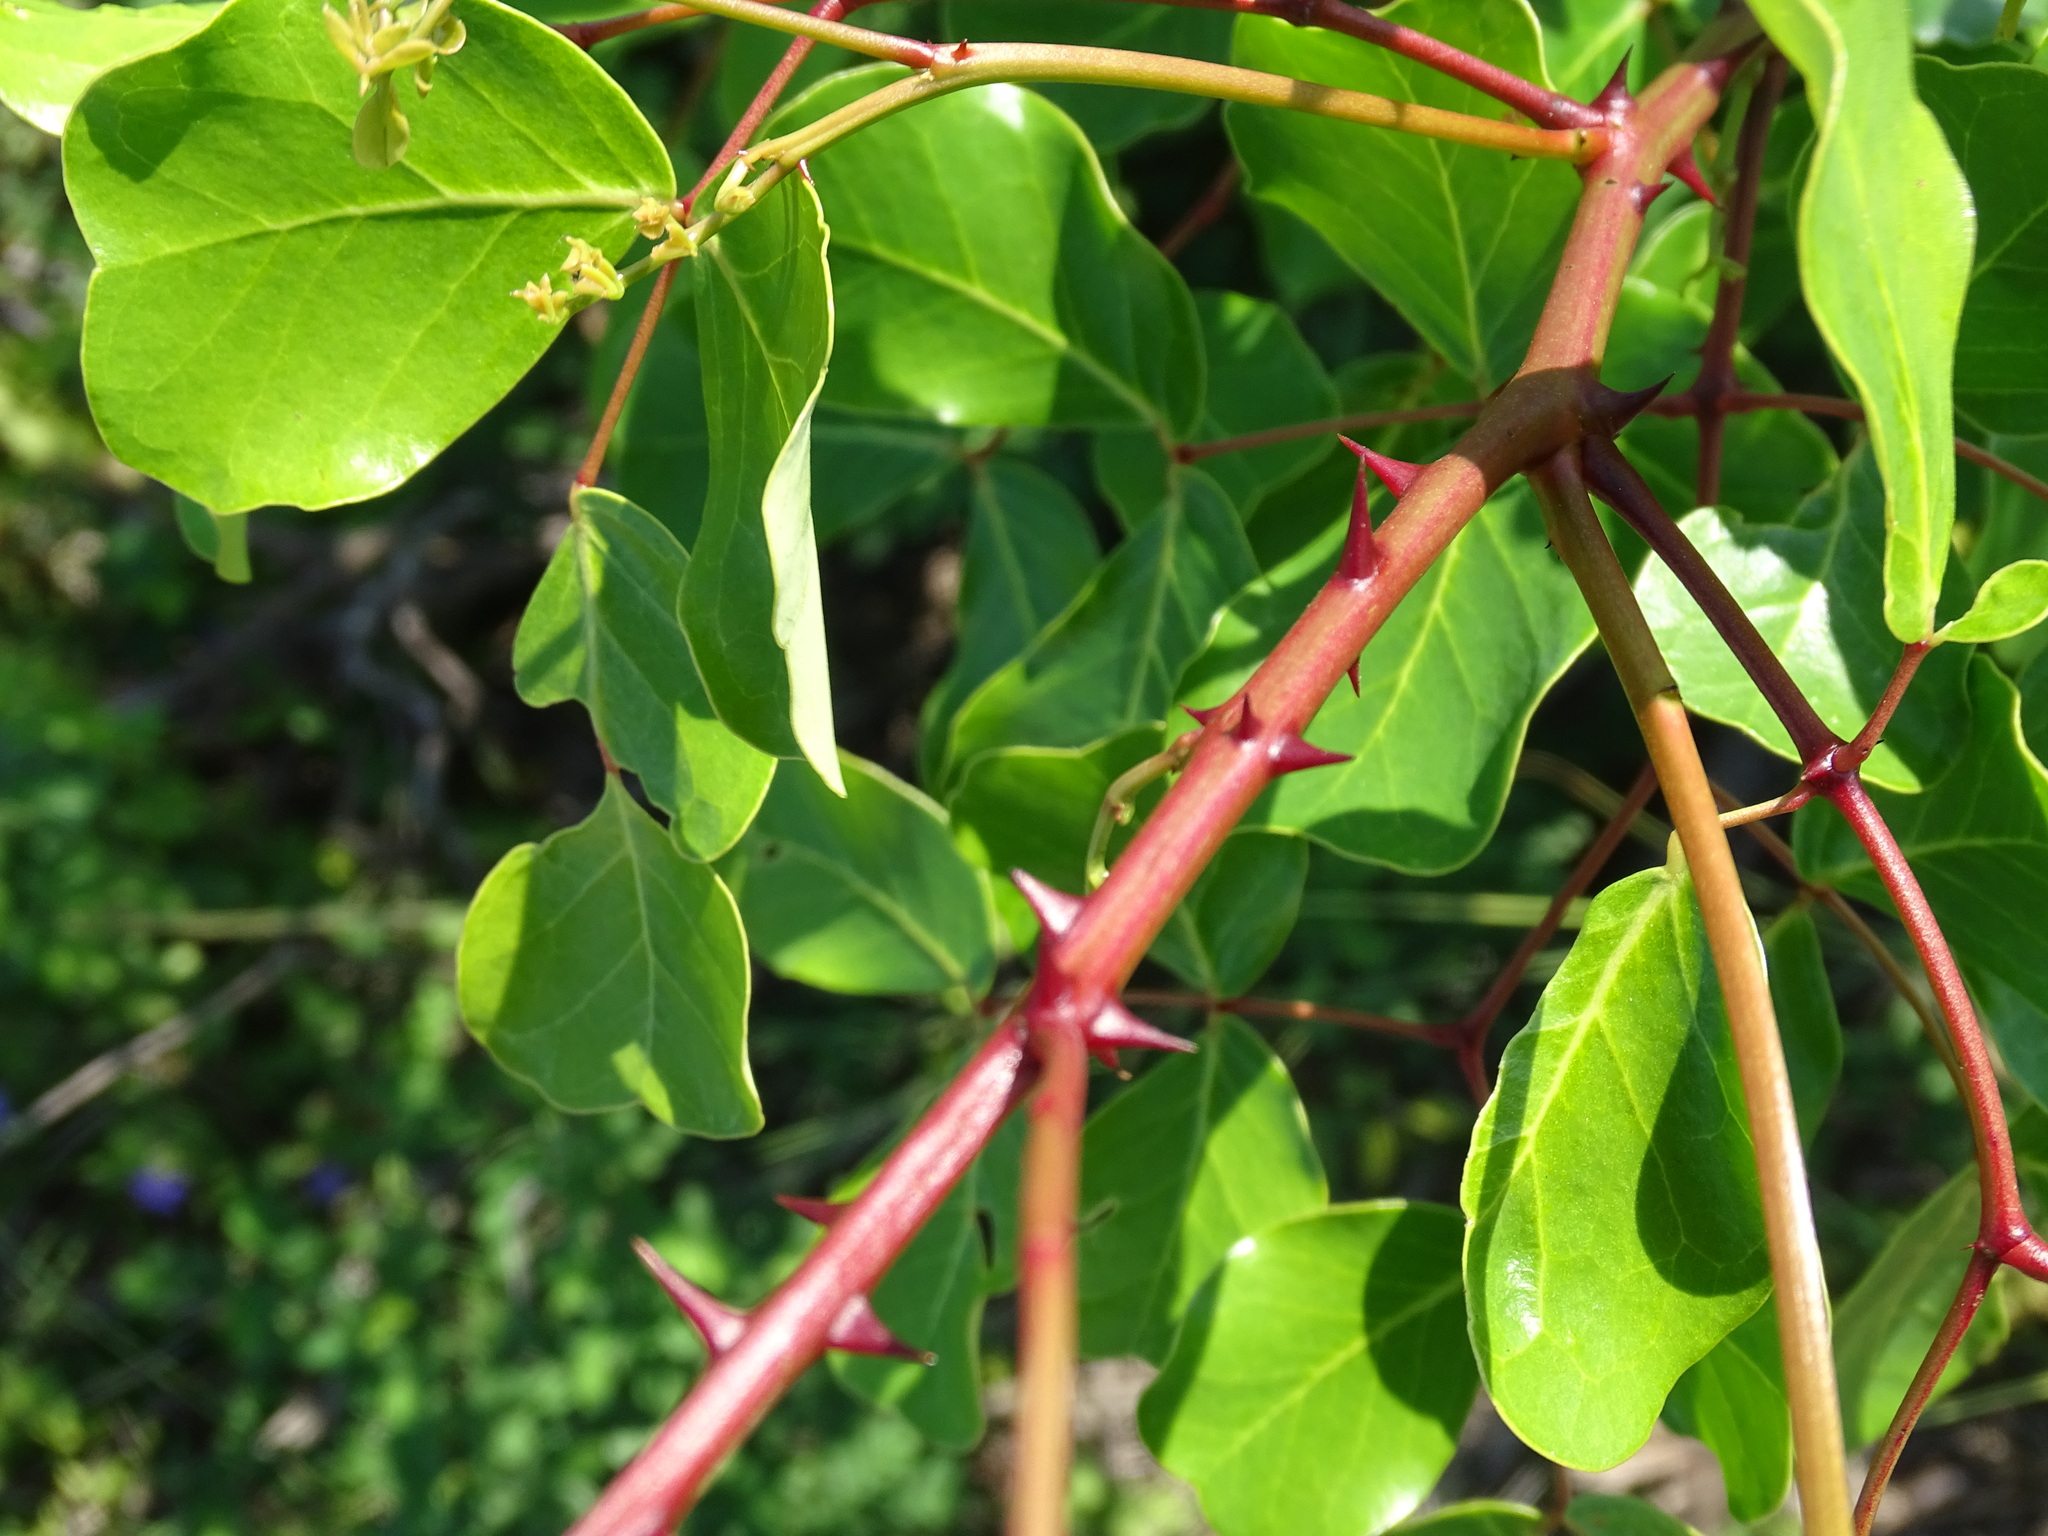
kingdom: Plantae
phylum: Tracheophyta
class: Magnoliopsida
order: Fabales
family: Fabaceae
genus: Tara
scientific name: Tara vesicaria
